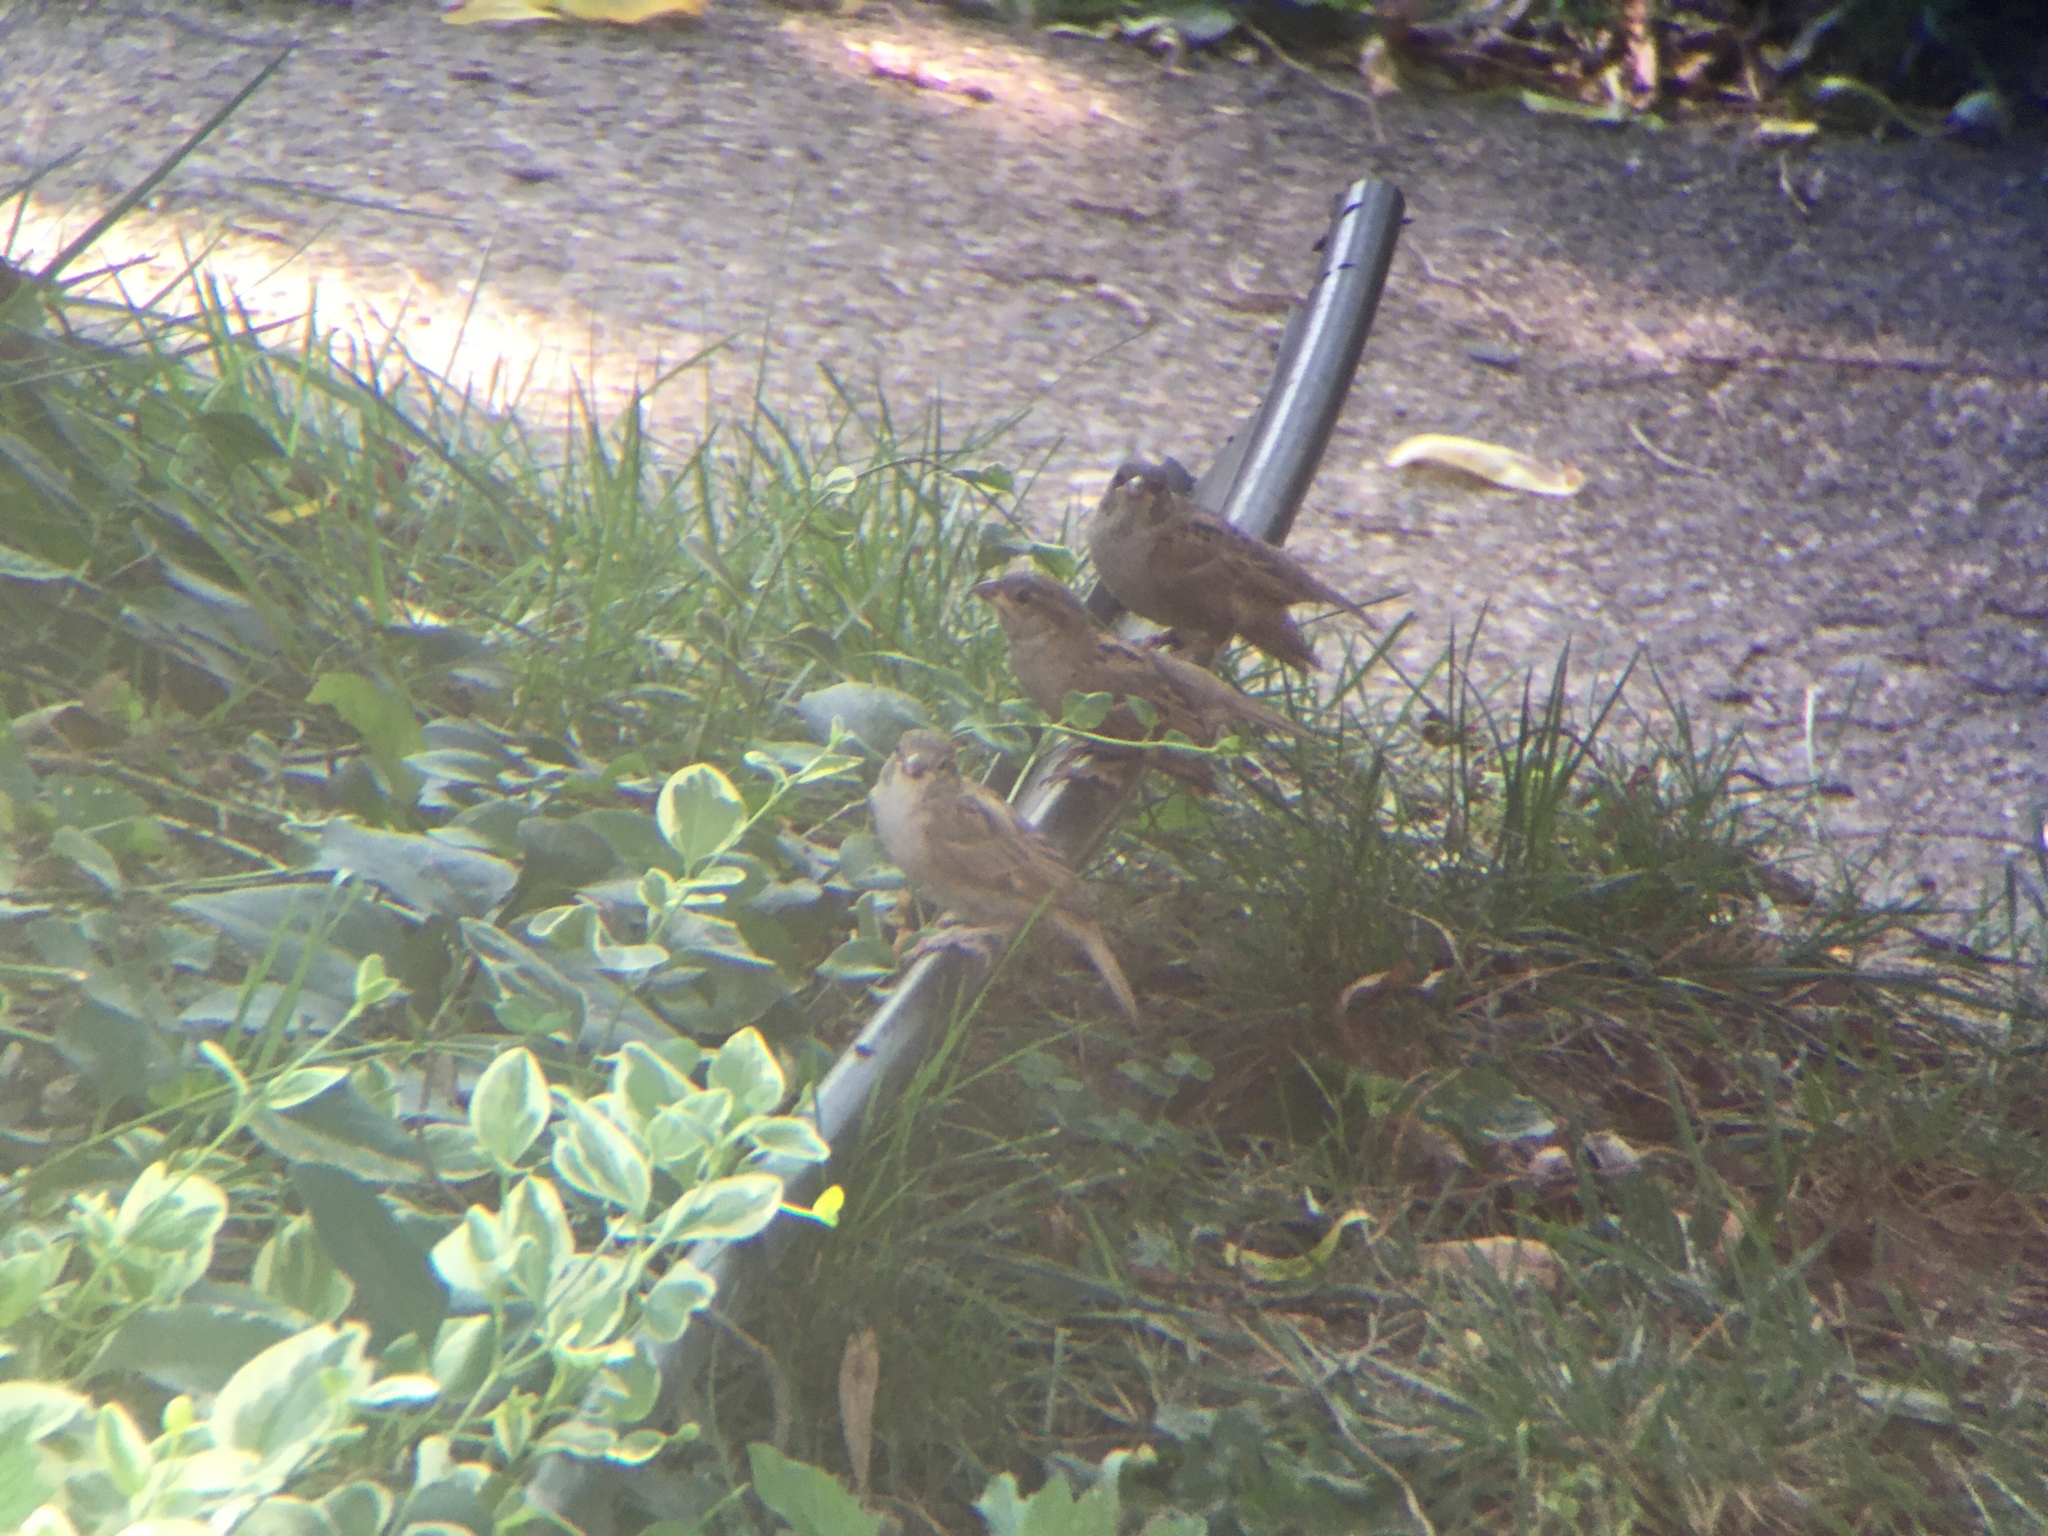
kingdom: Animalia
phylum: Chordata
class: Aves
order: Passeriformes
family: Passeridae
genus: Passer
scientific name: Passer domesticus
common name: House sparrow
